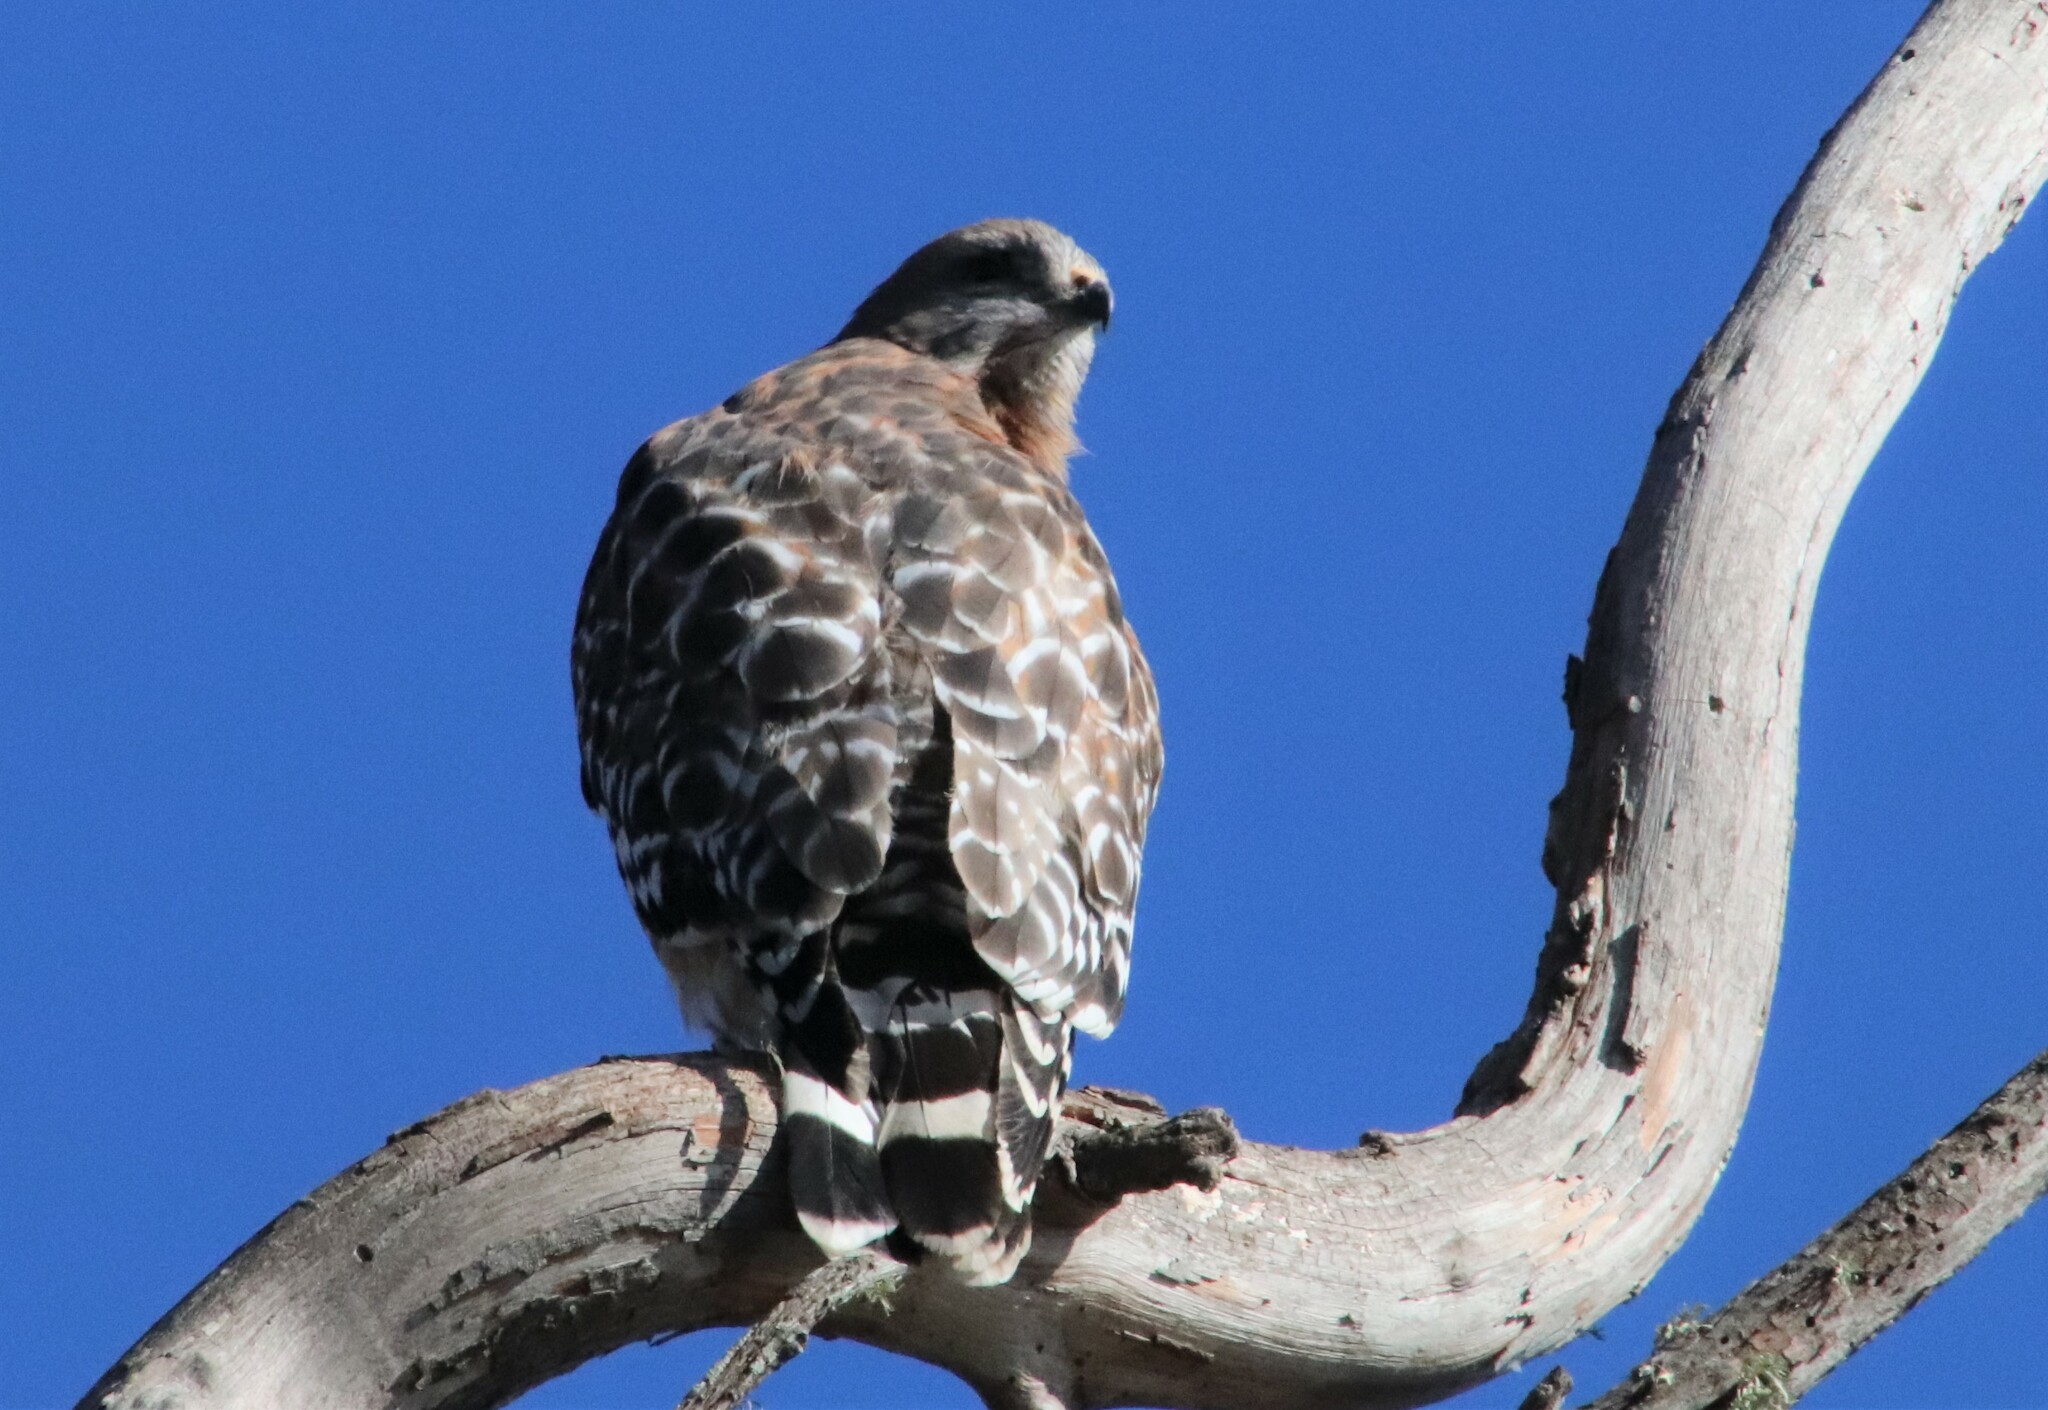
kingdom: Animalia
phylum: Chordata
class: Aves
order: Accipitriformes
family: Accipitridae
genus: Buteo
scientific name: Buteo lineatus
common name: Red-shouldered hawk
